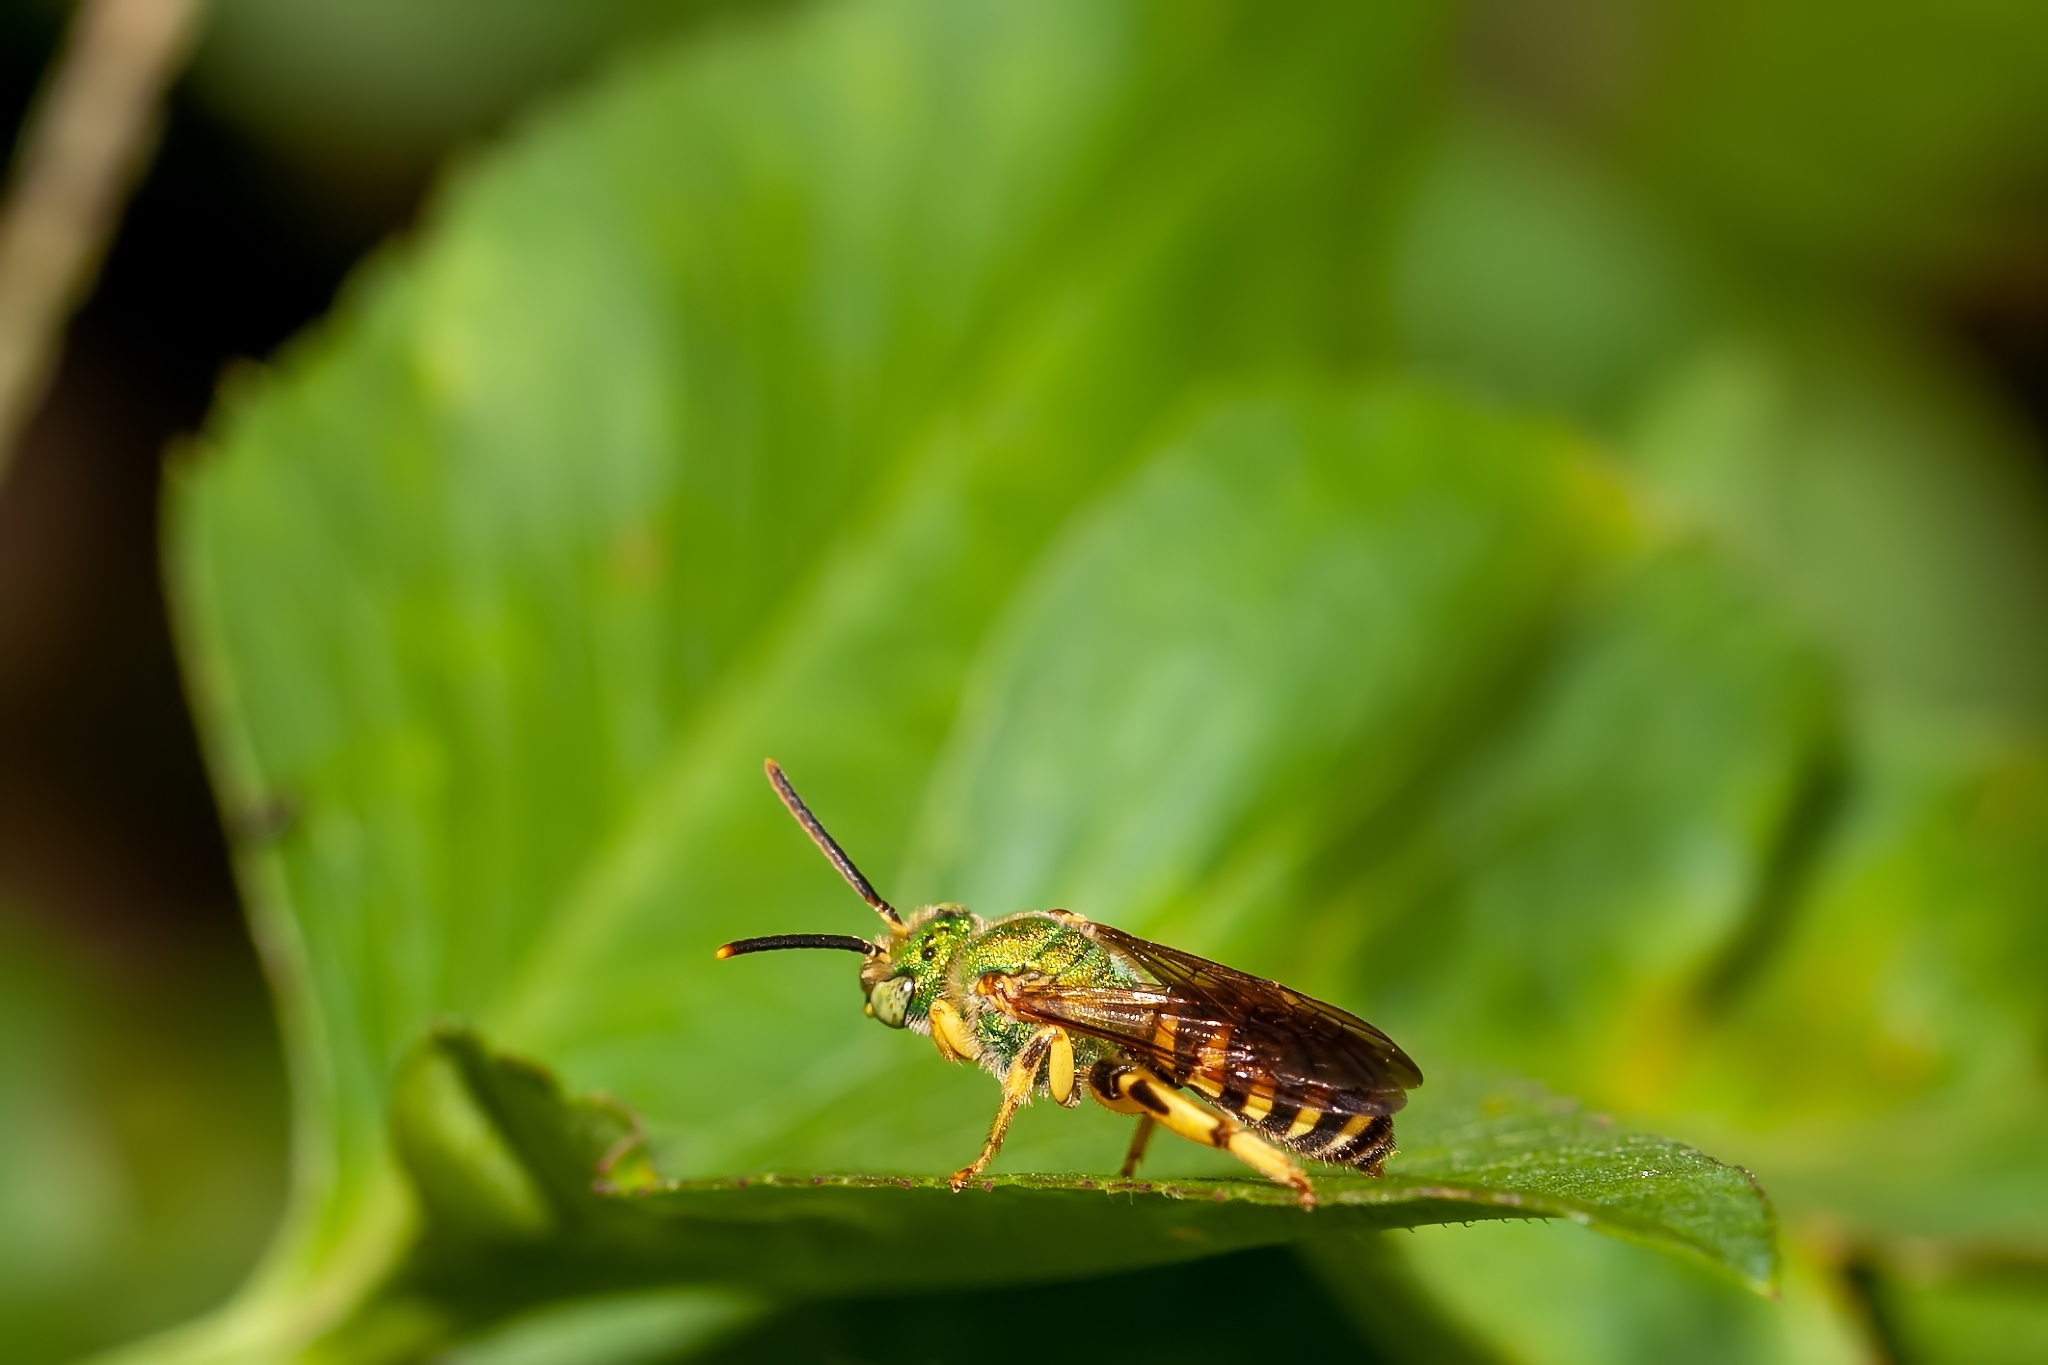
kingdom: Animalia
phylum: Arthropoda
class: Insecta
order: Hymenoptera
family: Halictidae
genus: Agapostemon
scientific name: Agapostemon splendens
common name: Brown-winged striped sweat bee
